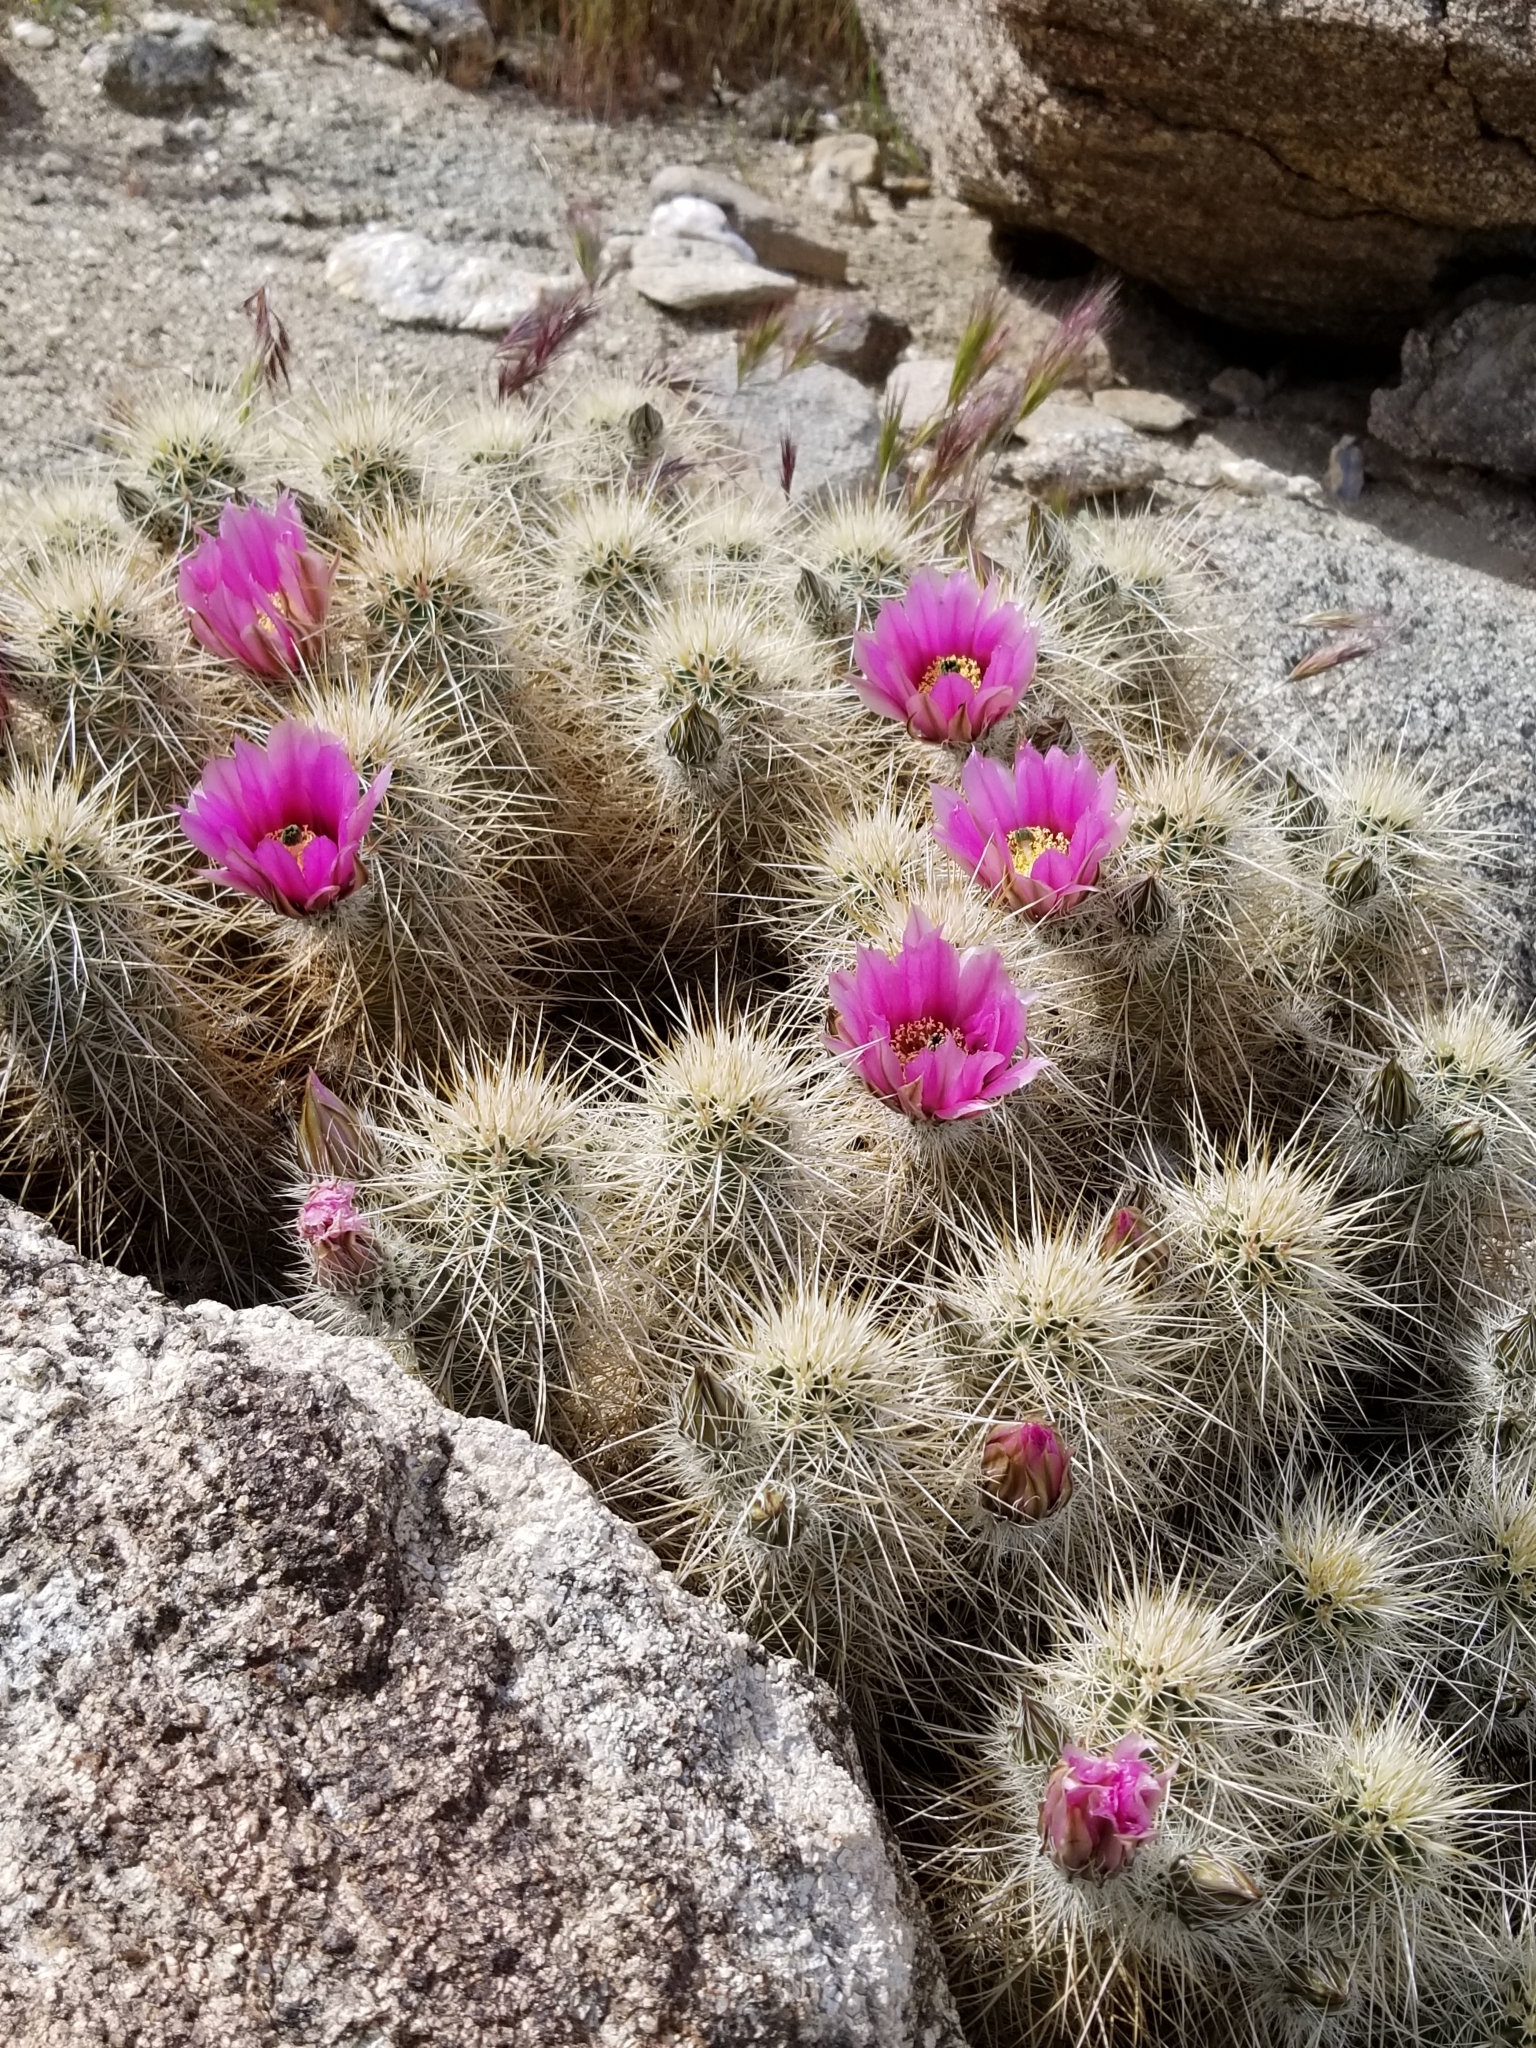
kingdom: Plantae
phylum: Tracheophyta
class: Magnoliopsida
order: Caryophyllales
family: Cactaceae
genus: Echinocereus
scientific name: Echinocereus engelmannii
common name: Engelmann's hedgehog cactus
